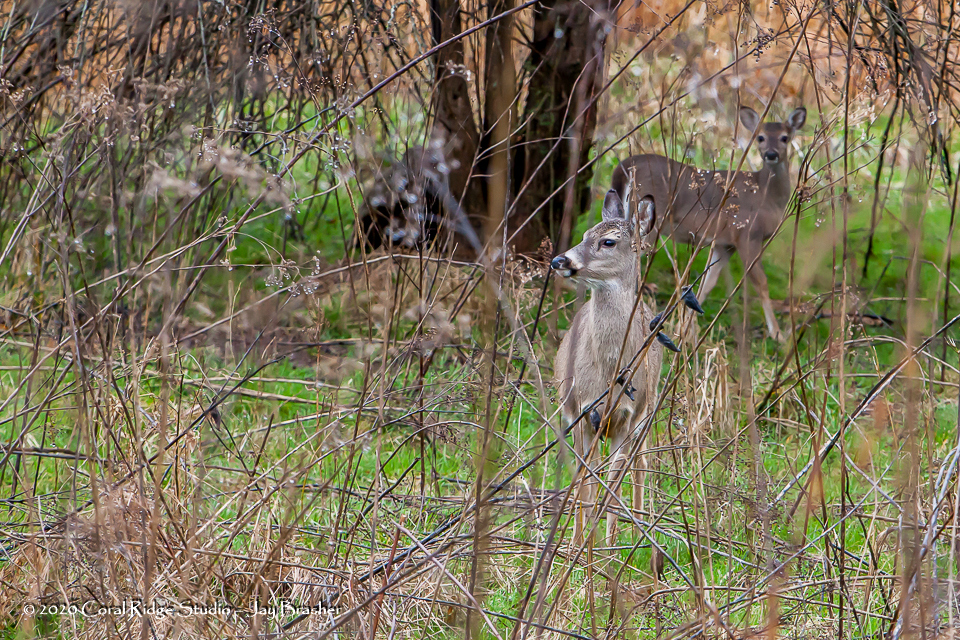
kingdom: Animalia
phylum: Chordata
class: Mammalia
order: Artiodactyla
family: Cervidae
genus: Odocoileus
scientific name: Odocoileus virginianus
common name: White-tailed deer
